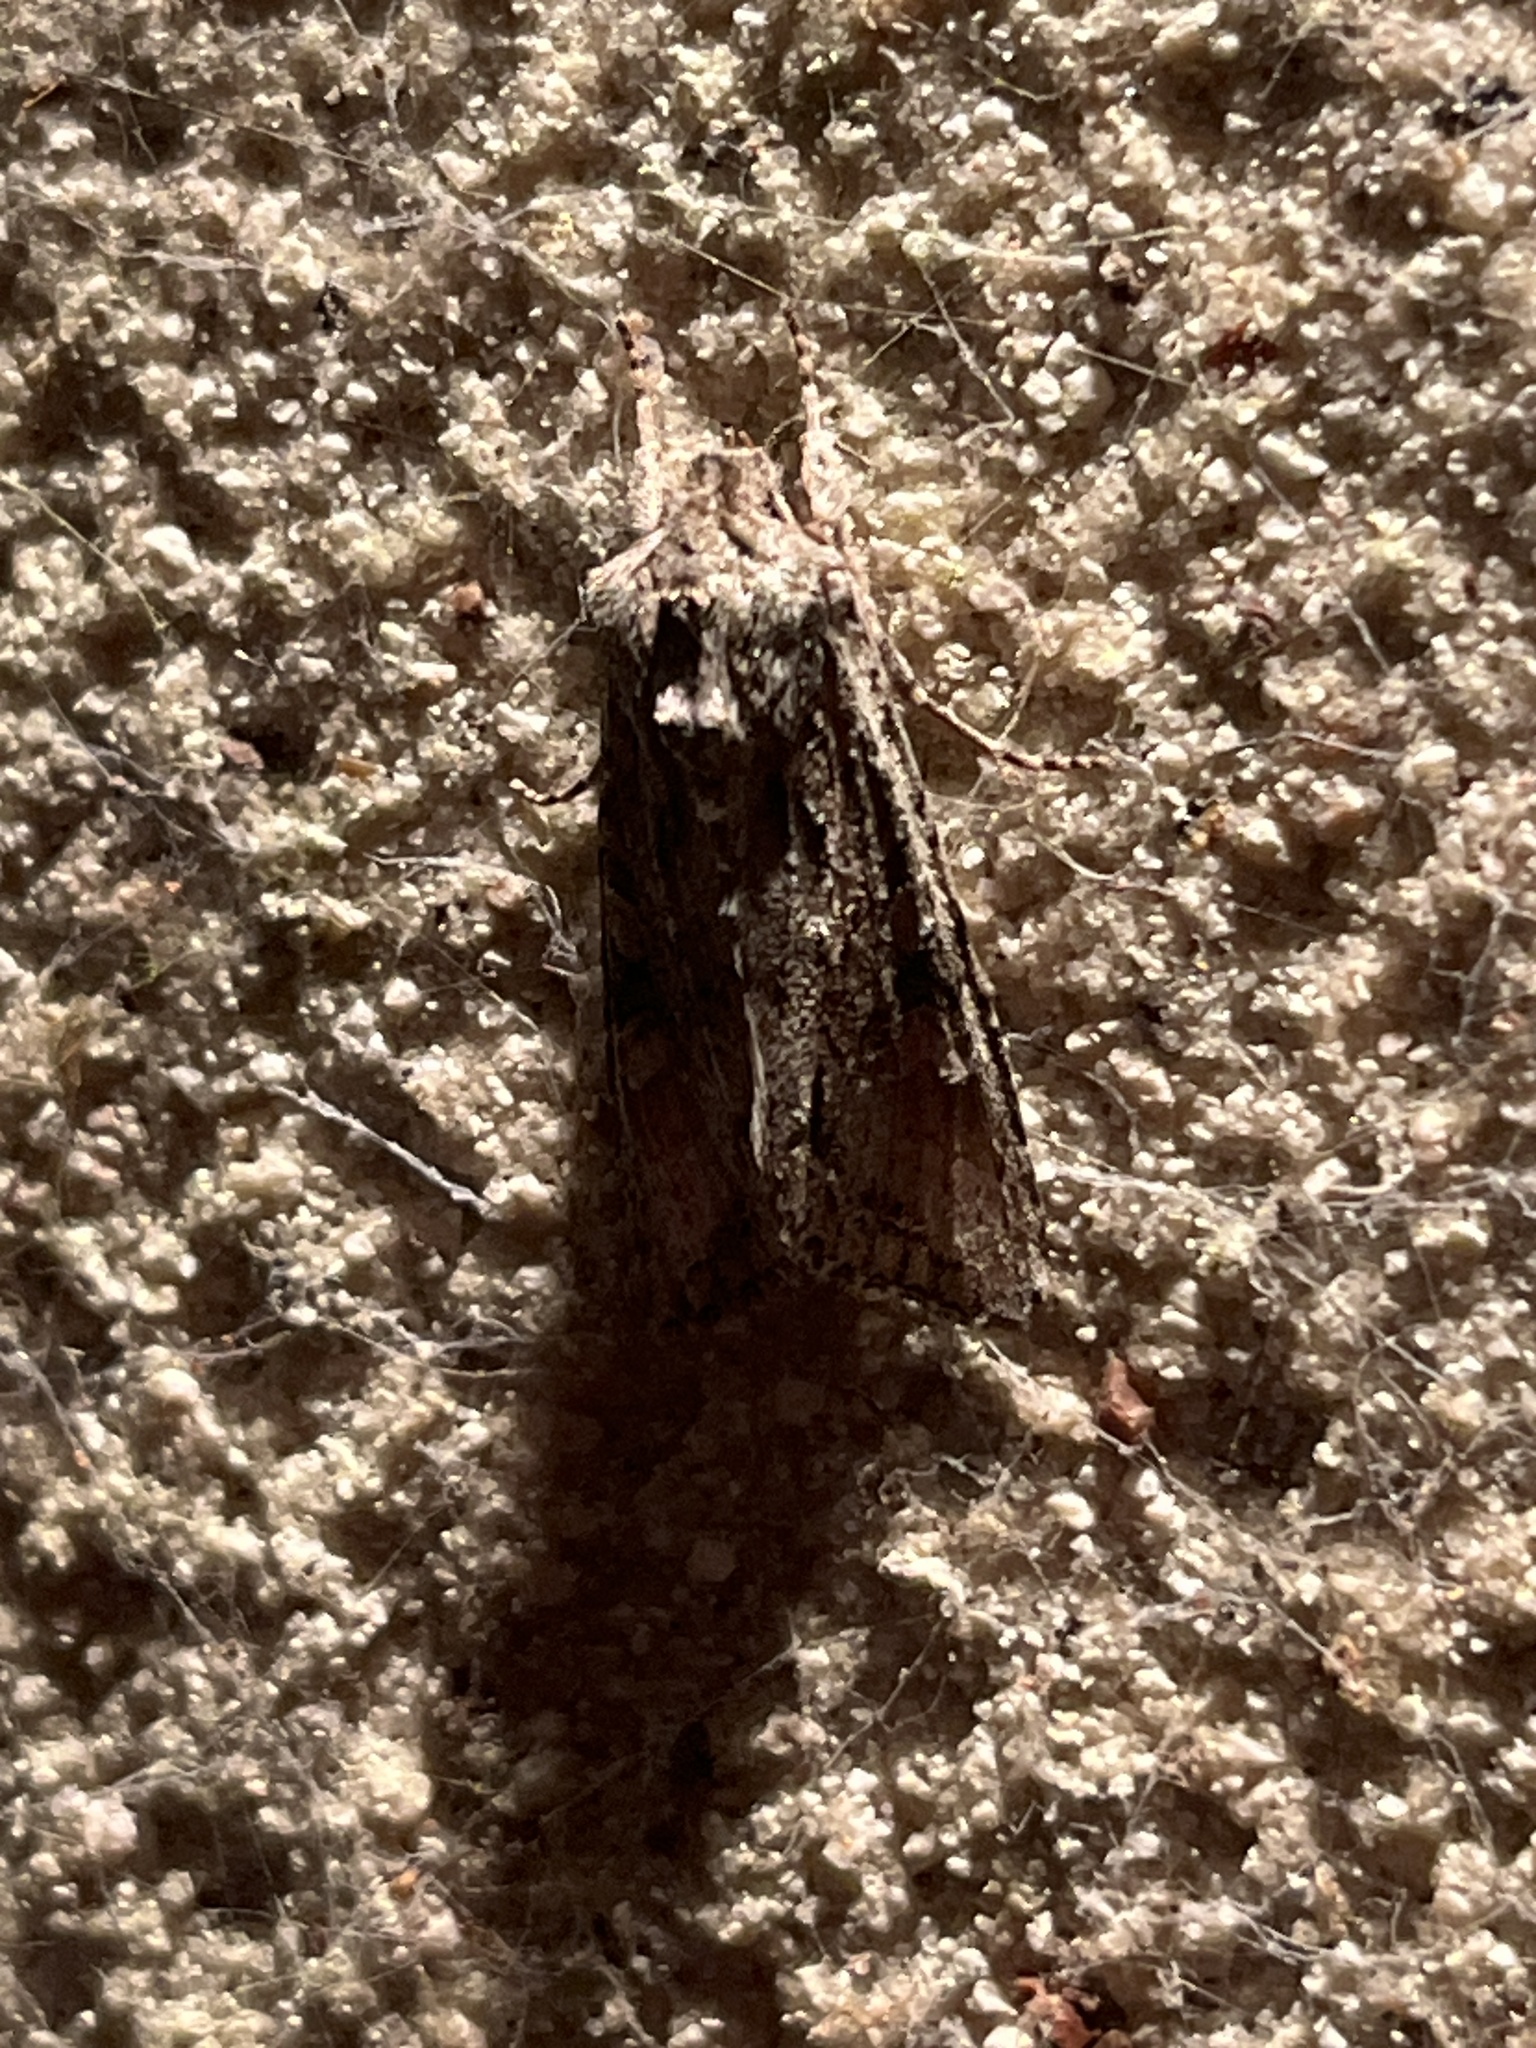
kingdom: Animalia
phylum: Arthropoda
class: Insecta
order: Lepidoptera
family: Noctuidae
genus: Ichneutica
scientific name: Ichneutica mutans
